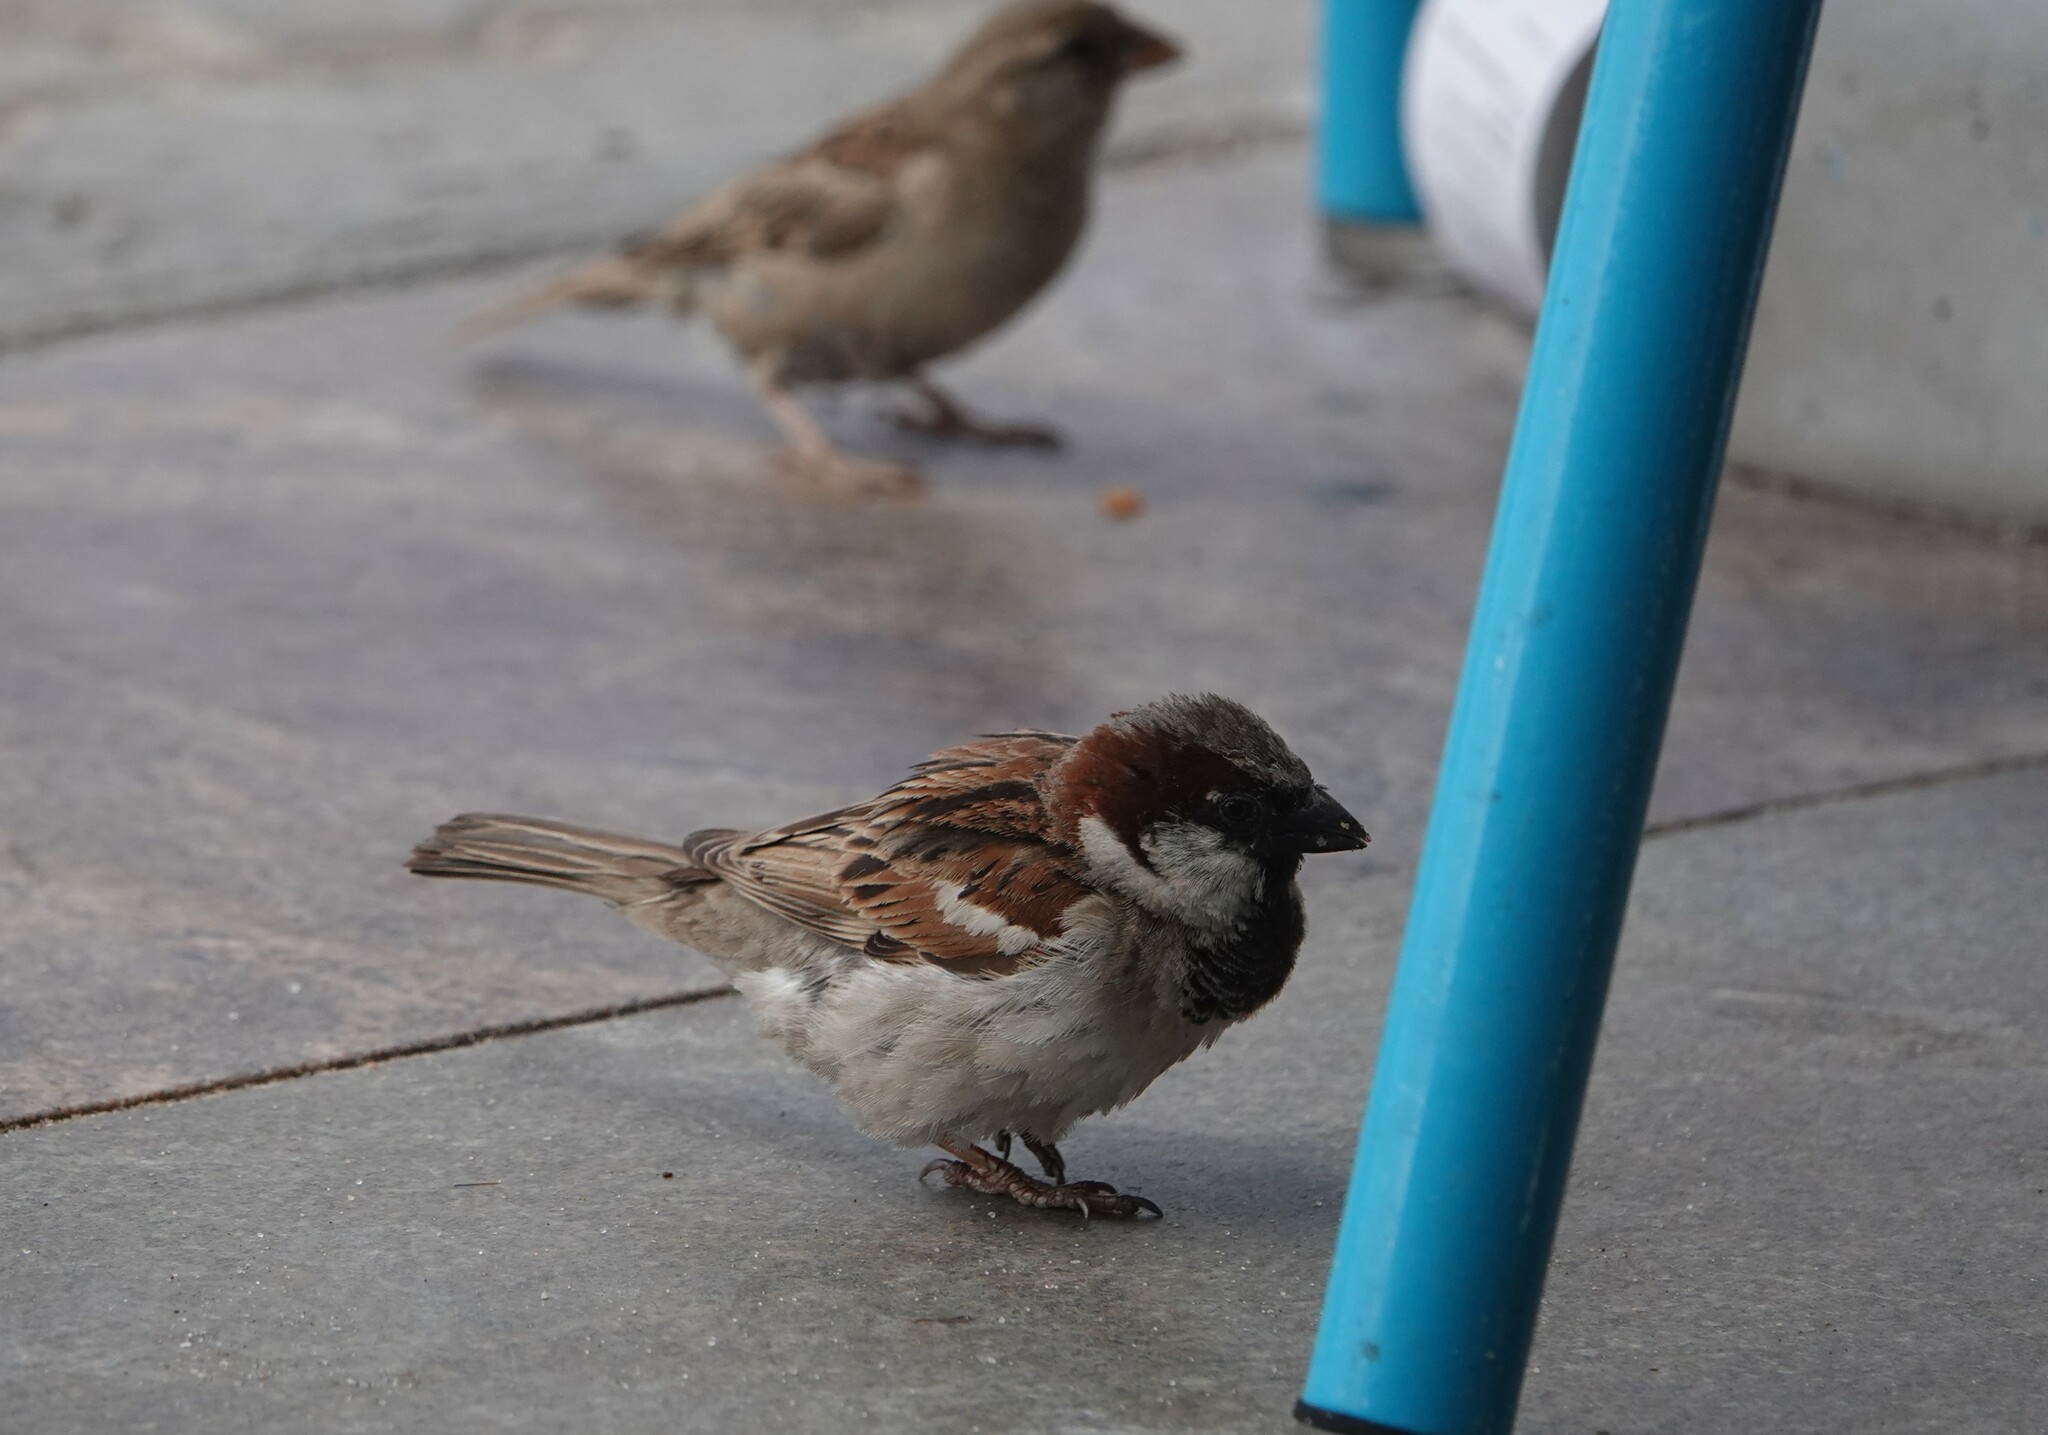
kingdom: Animalia
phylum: Chordata
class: Aves
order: Passeriformes
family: Passeridae
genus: Passer
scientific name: Passer domesticus
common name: House sparrow
